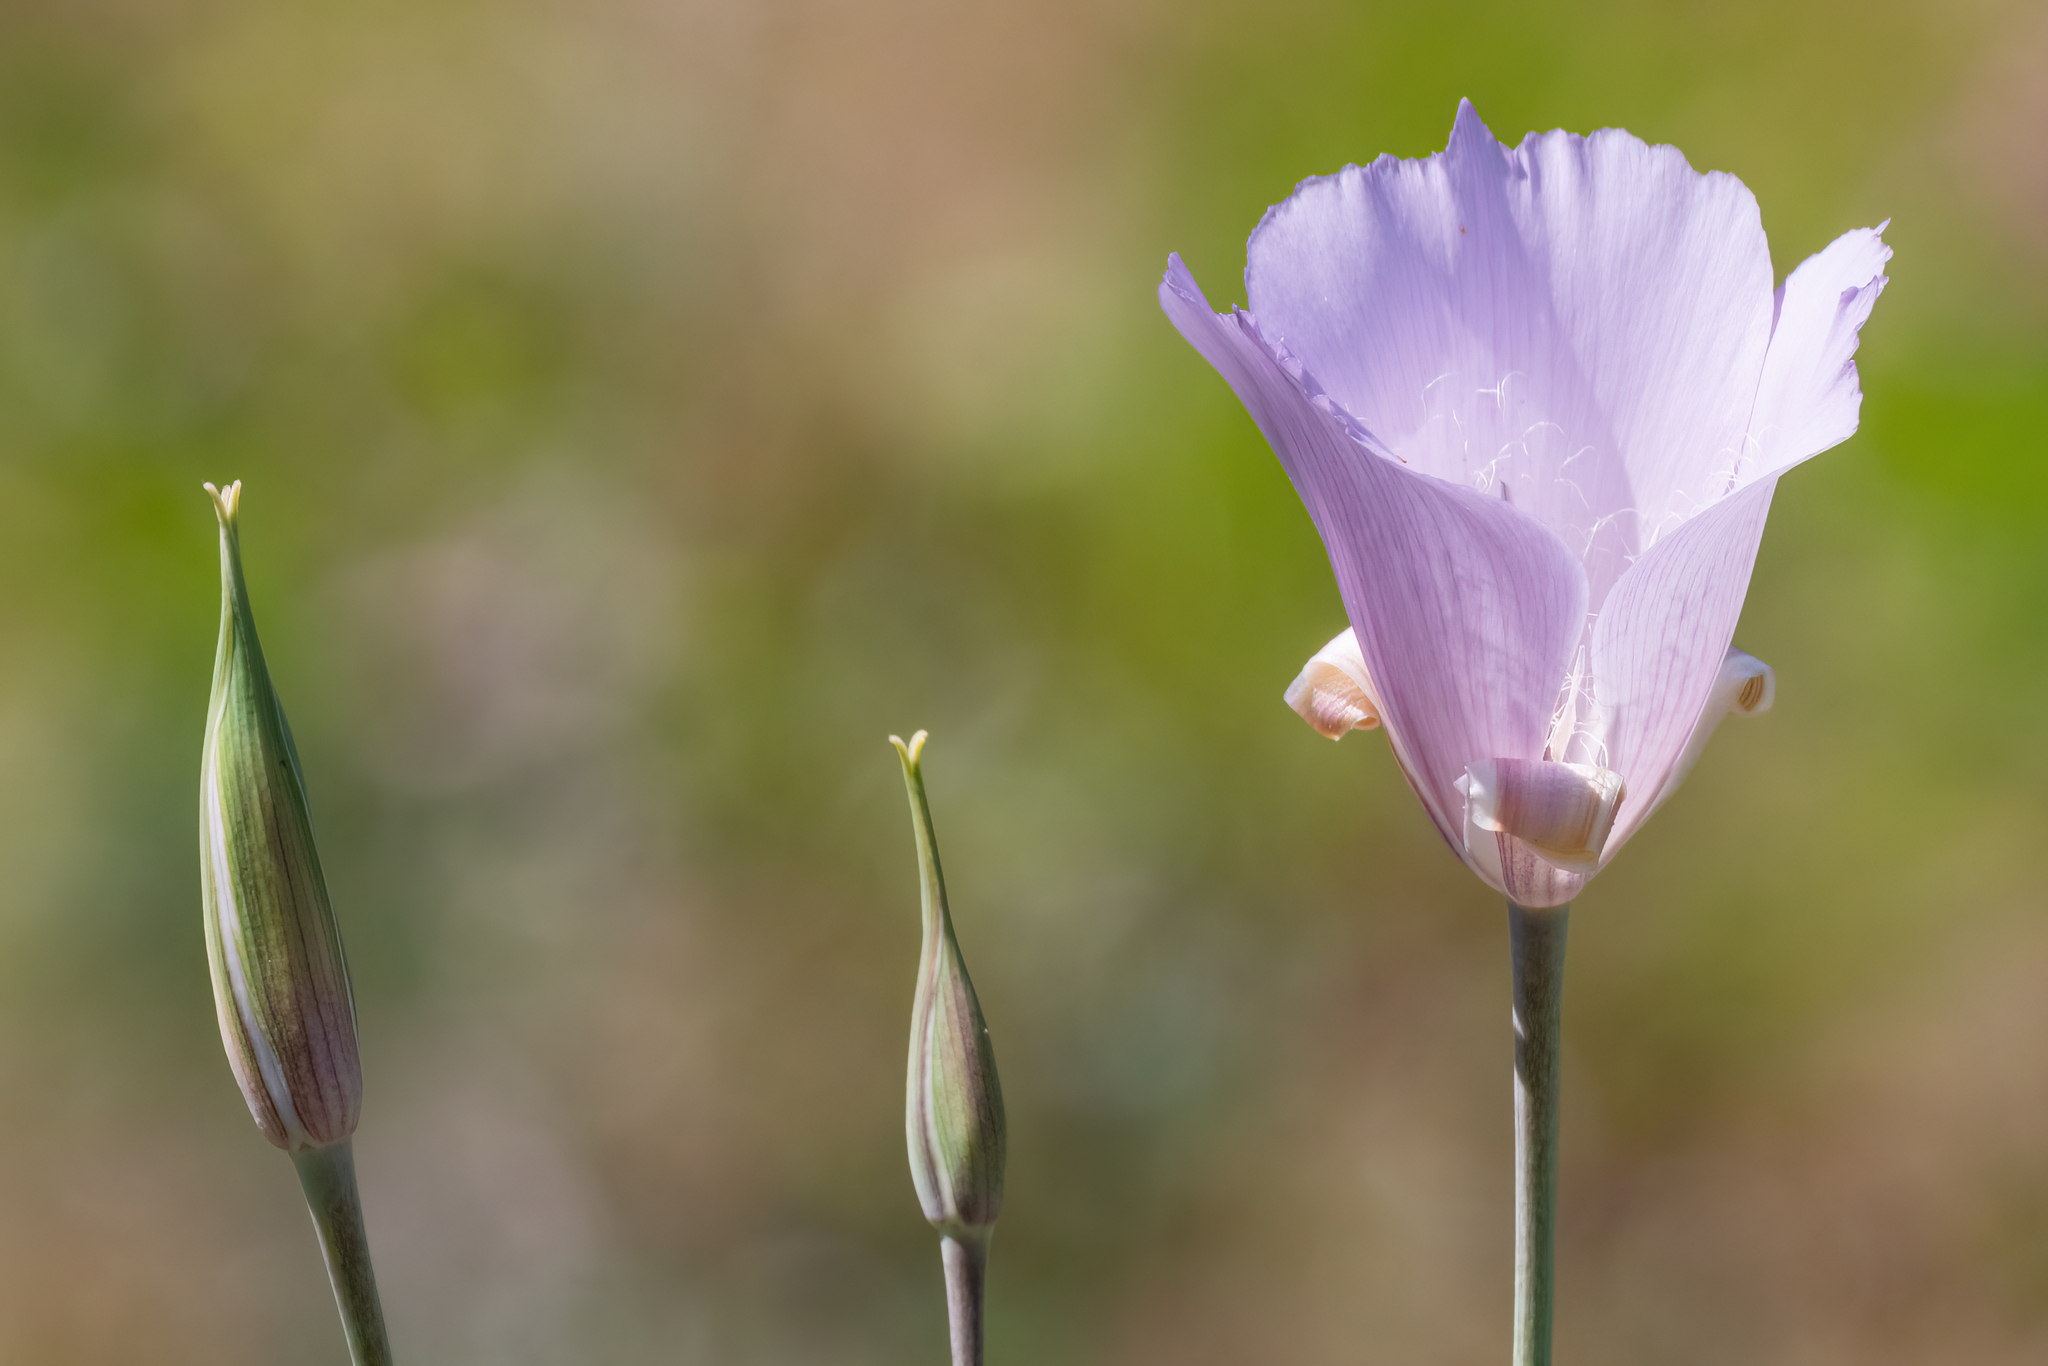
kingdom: Plantae
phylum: Tracheophyta
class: Liliopsida
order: Liliales
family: Liliaceae
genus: Calochortus
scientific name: Calochortus splendens
